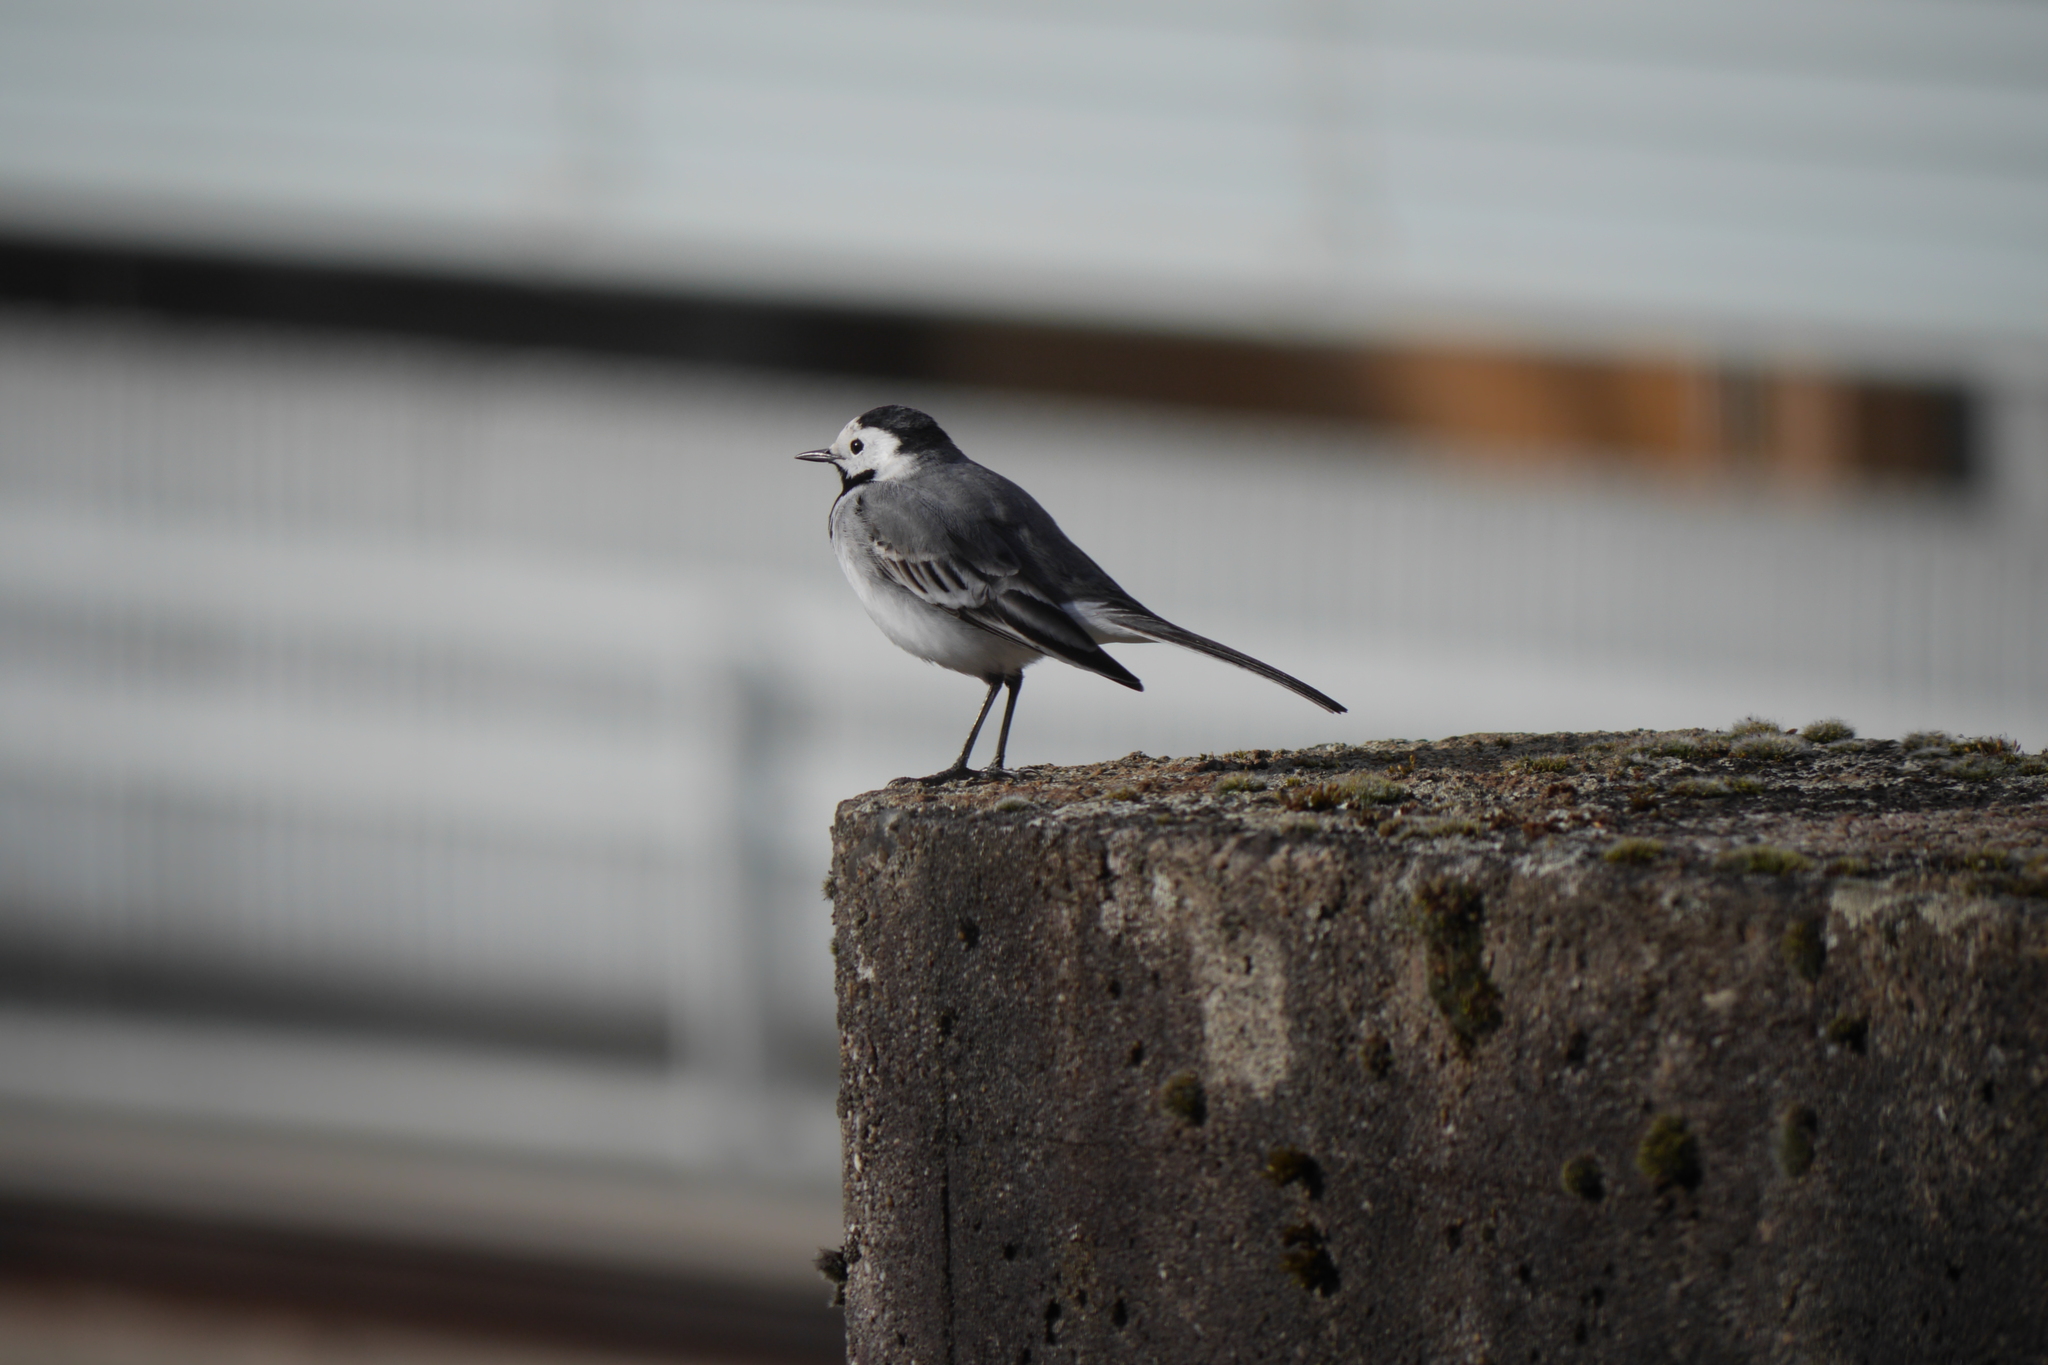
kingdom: Animalia
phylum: Chordata
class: Aves
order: Passeriformes
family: Motacillidae
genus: Motacilla
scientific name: Motacilla alba
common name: White wagtail
